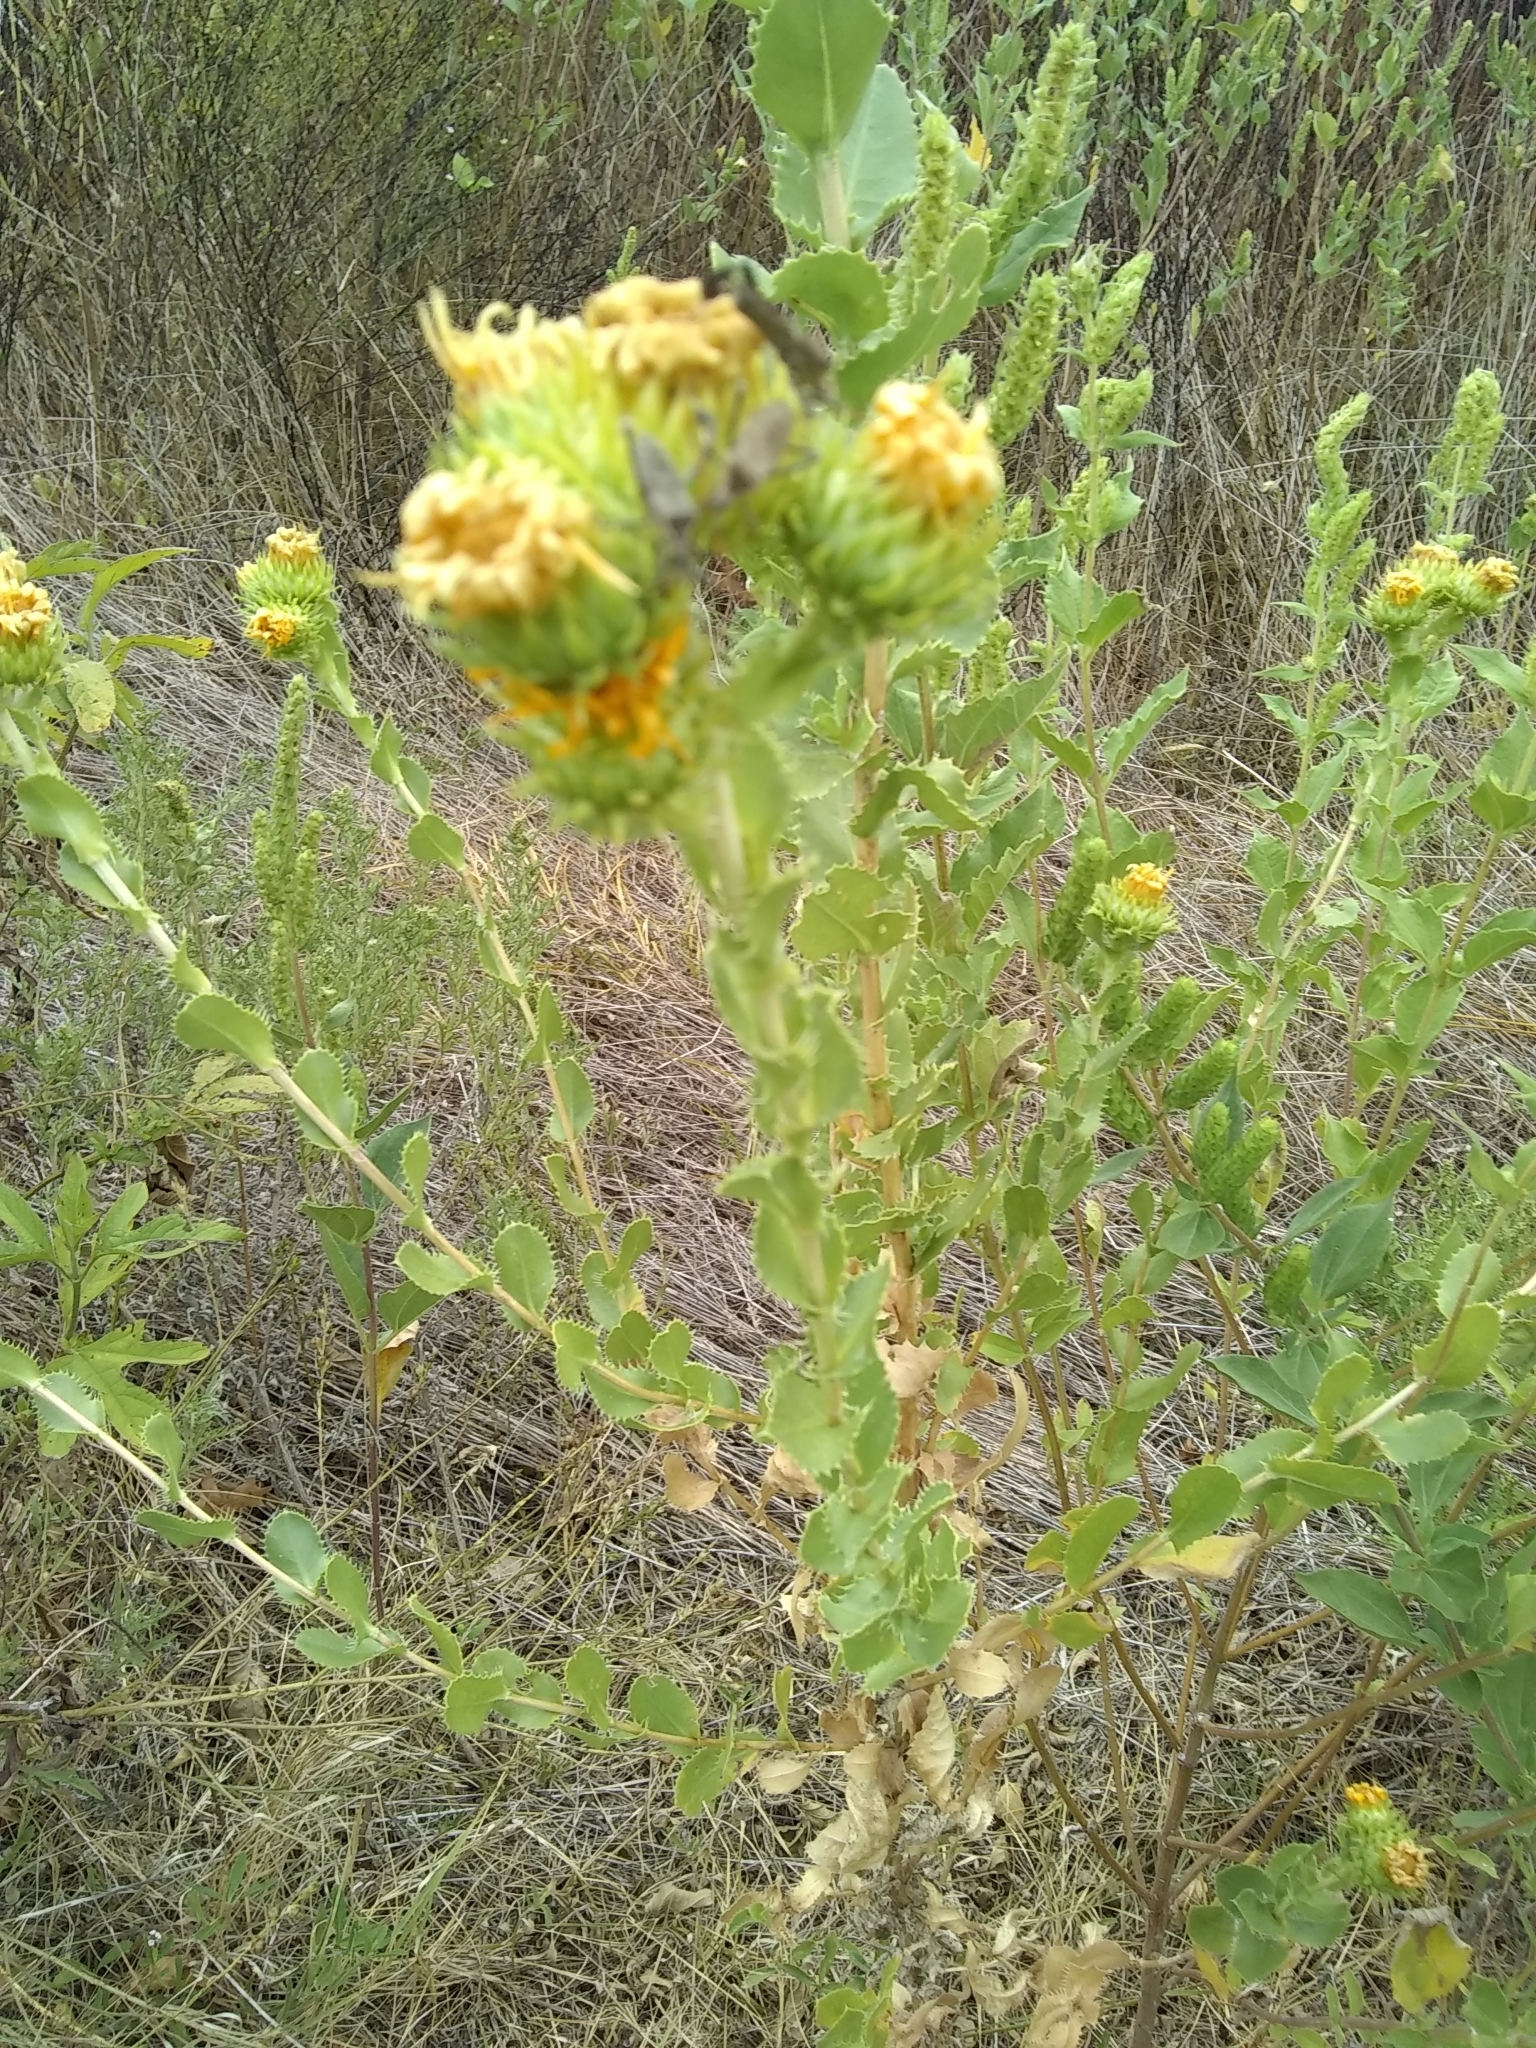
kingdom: Plantae
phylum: Tracheophyta
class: Magnoliopsida
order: Asterales
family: Asteraceae
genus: Grindelia
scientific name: Grindelia ciliata
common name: Goldenweed
